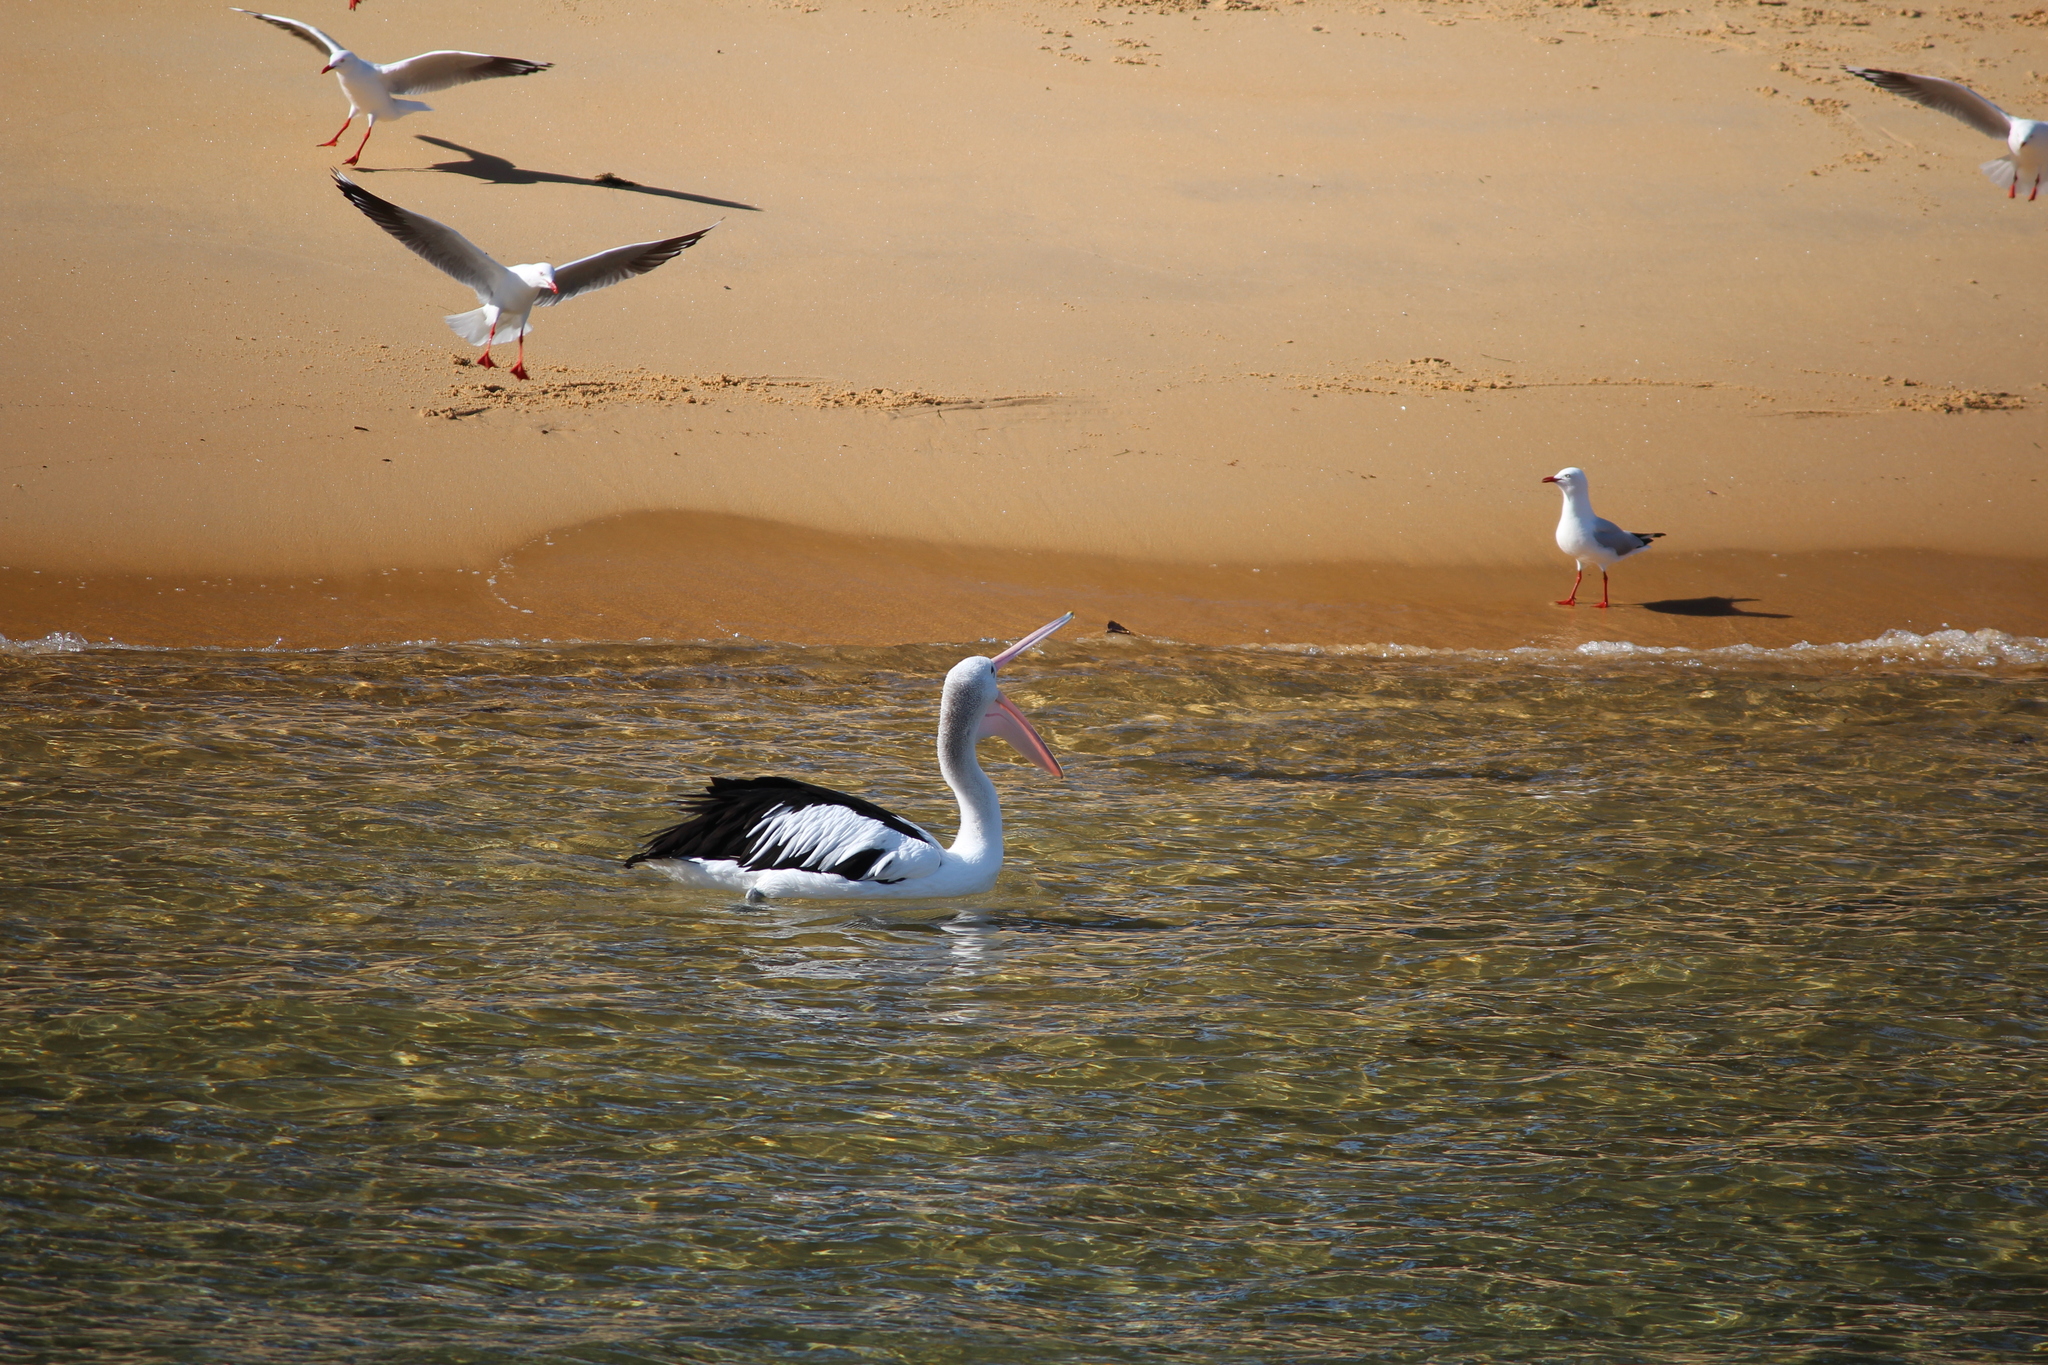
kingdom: Animalia
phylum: Chordata
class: Aves
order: Pelecaniformes
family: Pelecanidae
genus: Pelecanus
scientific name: Pelecanus conspicillatus
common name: Australian pelican
